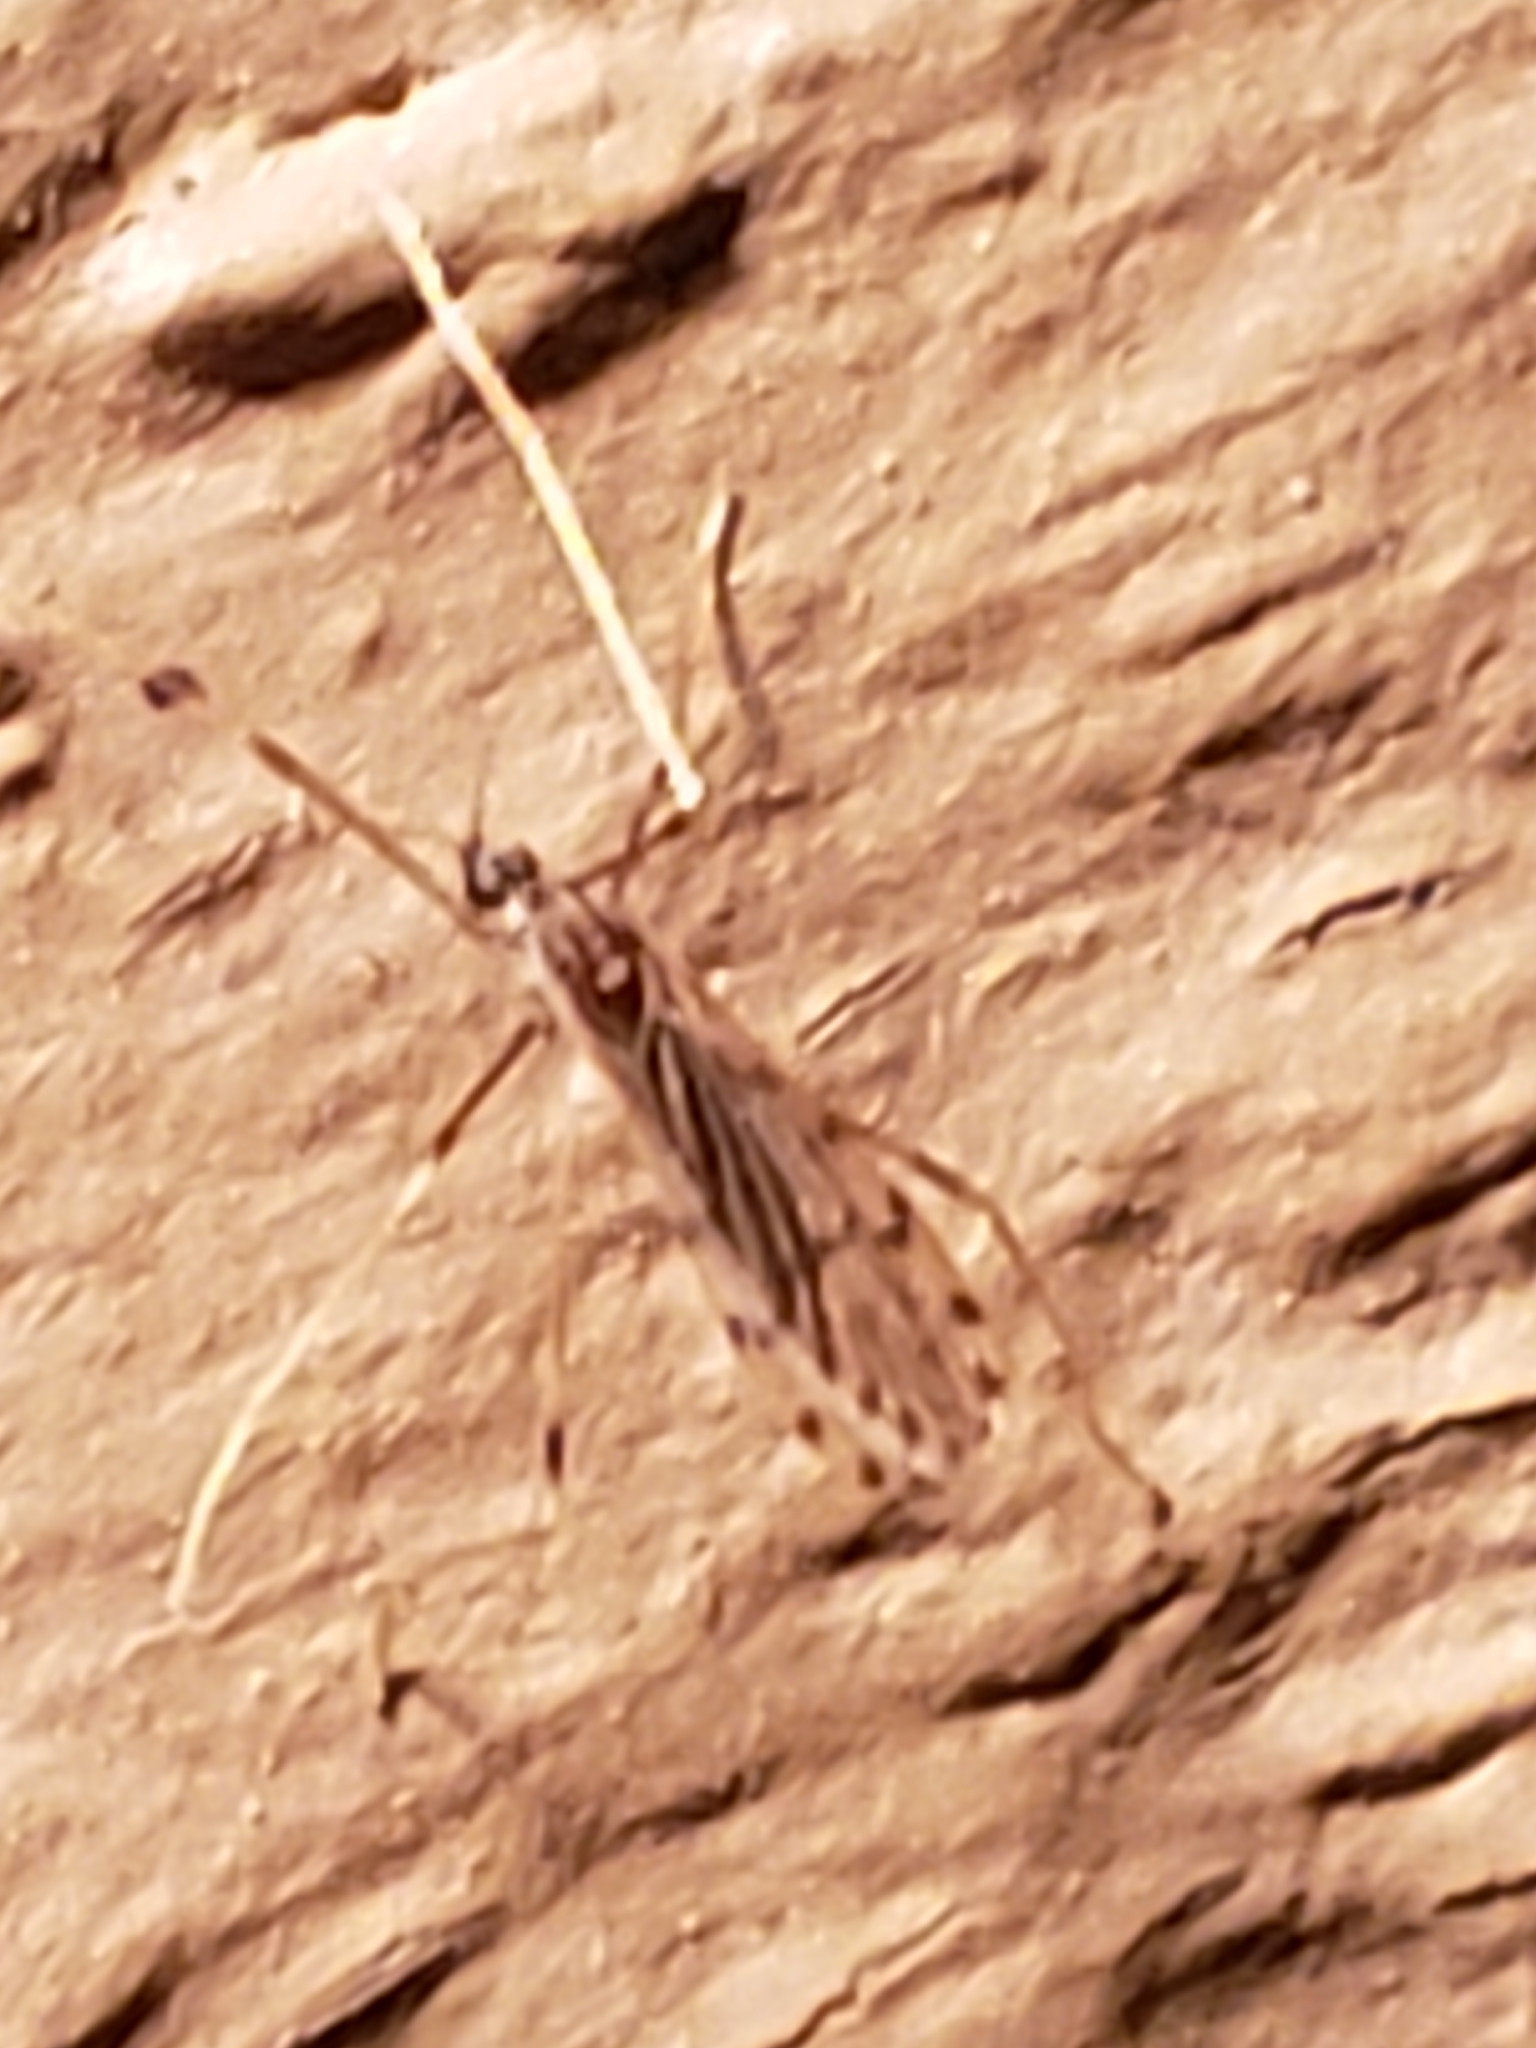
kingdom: Animalia
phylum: Arthropoda
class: Insecta
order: Diptera
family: Limoniidae
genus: Erioptera
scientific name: Erioptera parva
